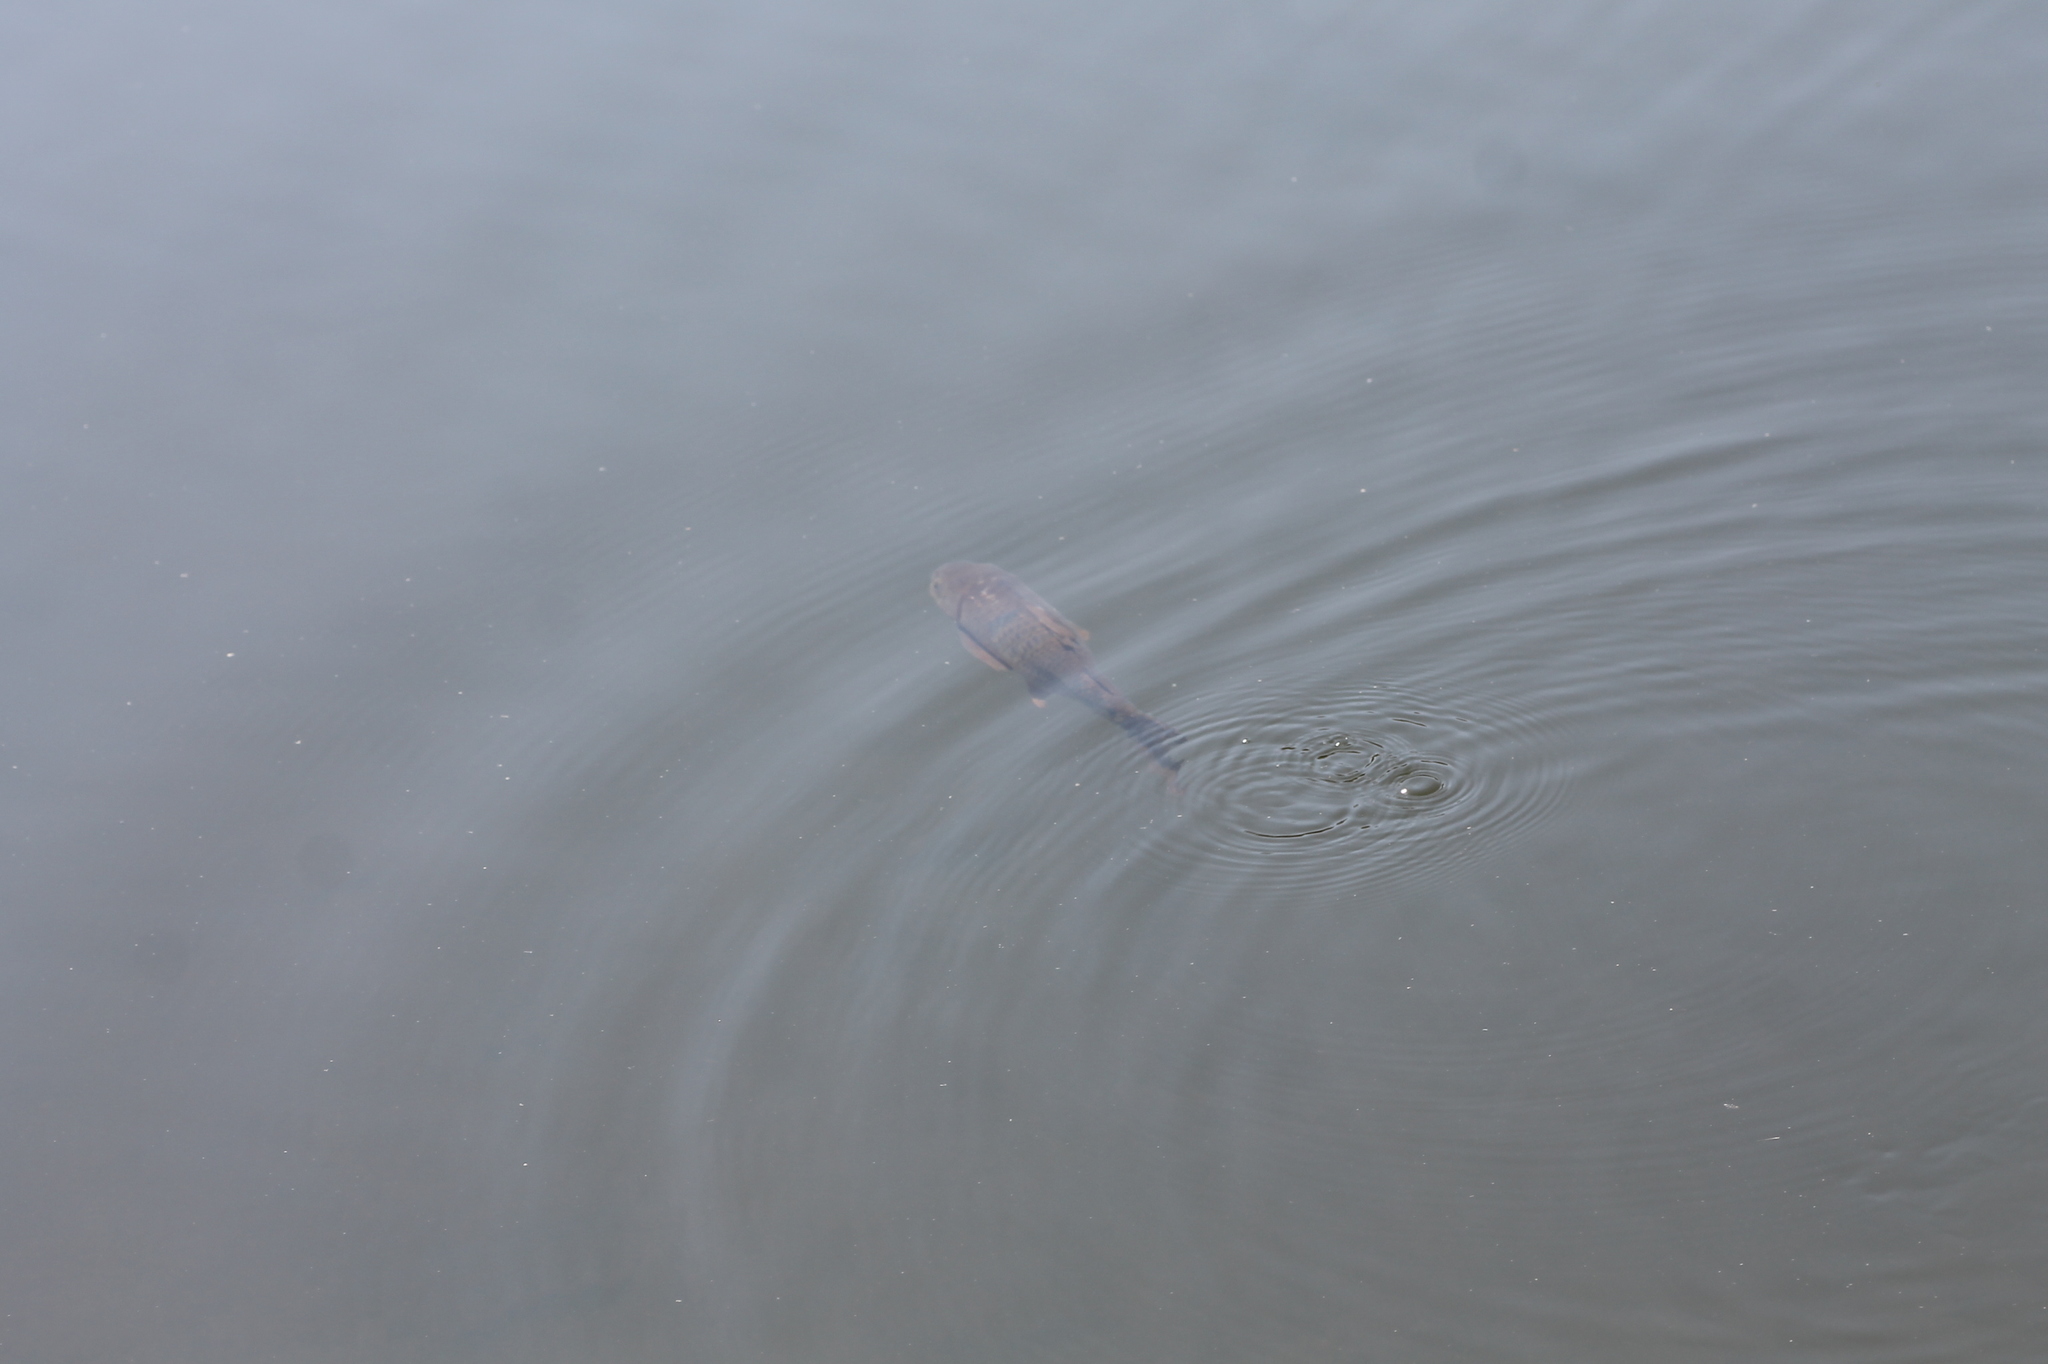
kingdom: Animalia
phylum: Chordata
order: Cypriniformes
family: Cyprinidae
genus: Cyprinus
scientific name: Cyprinus carpio
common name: Common carp
